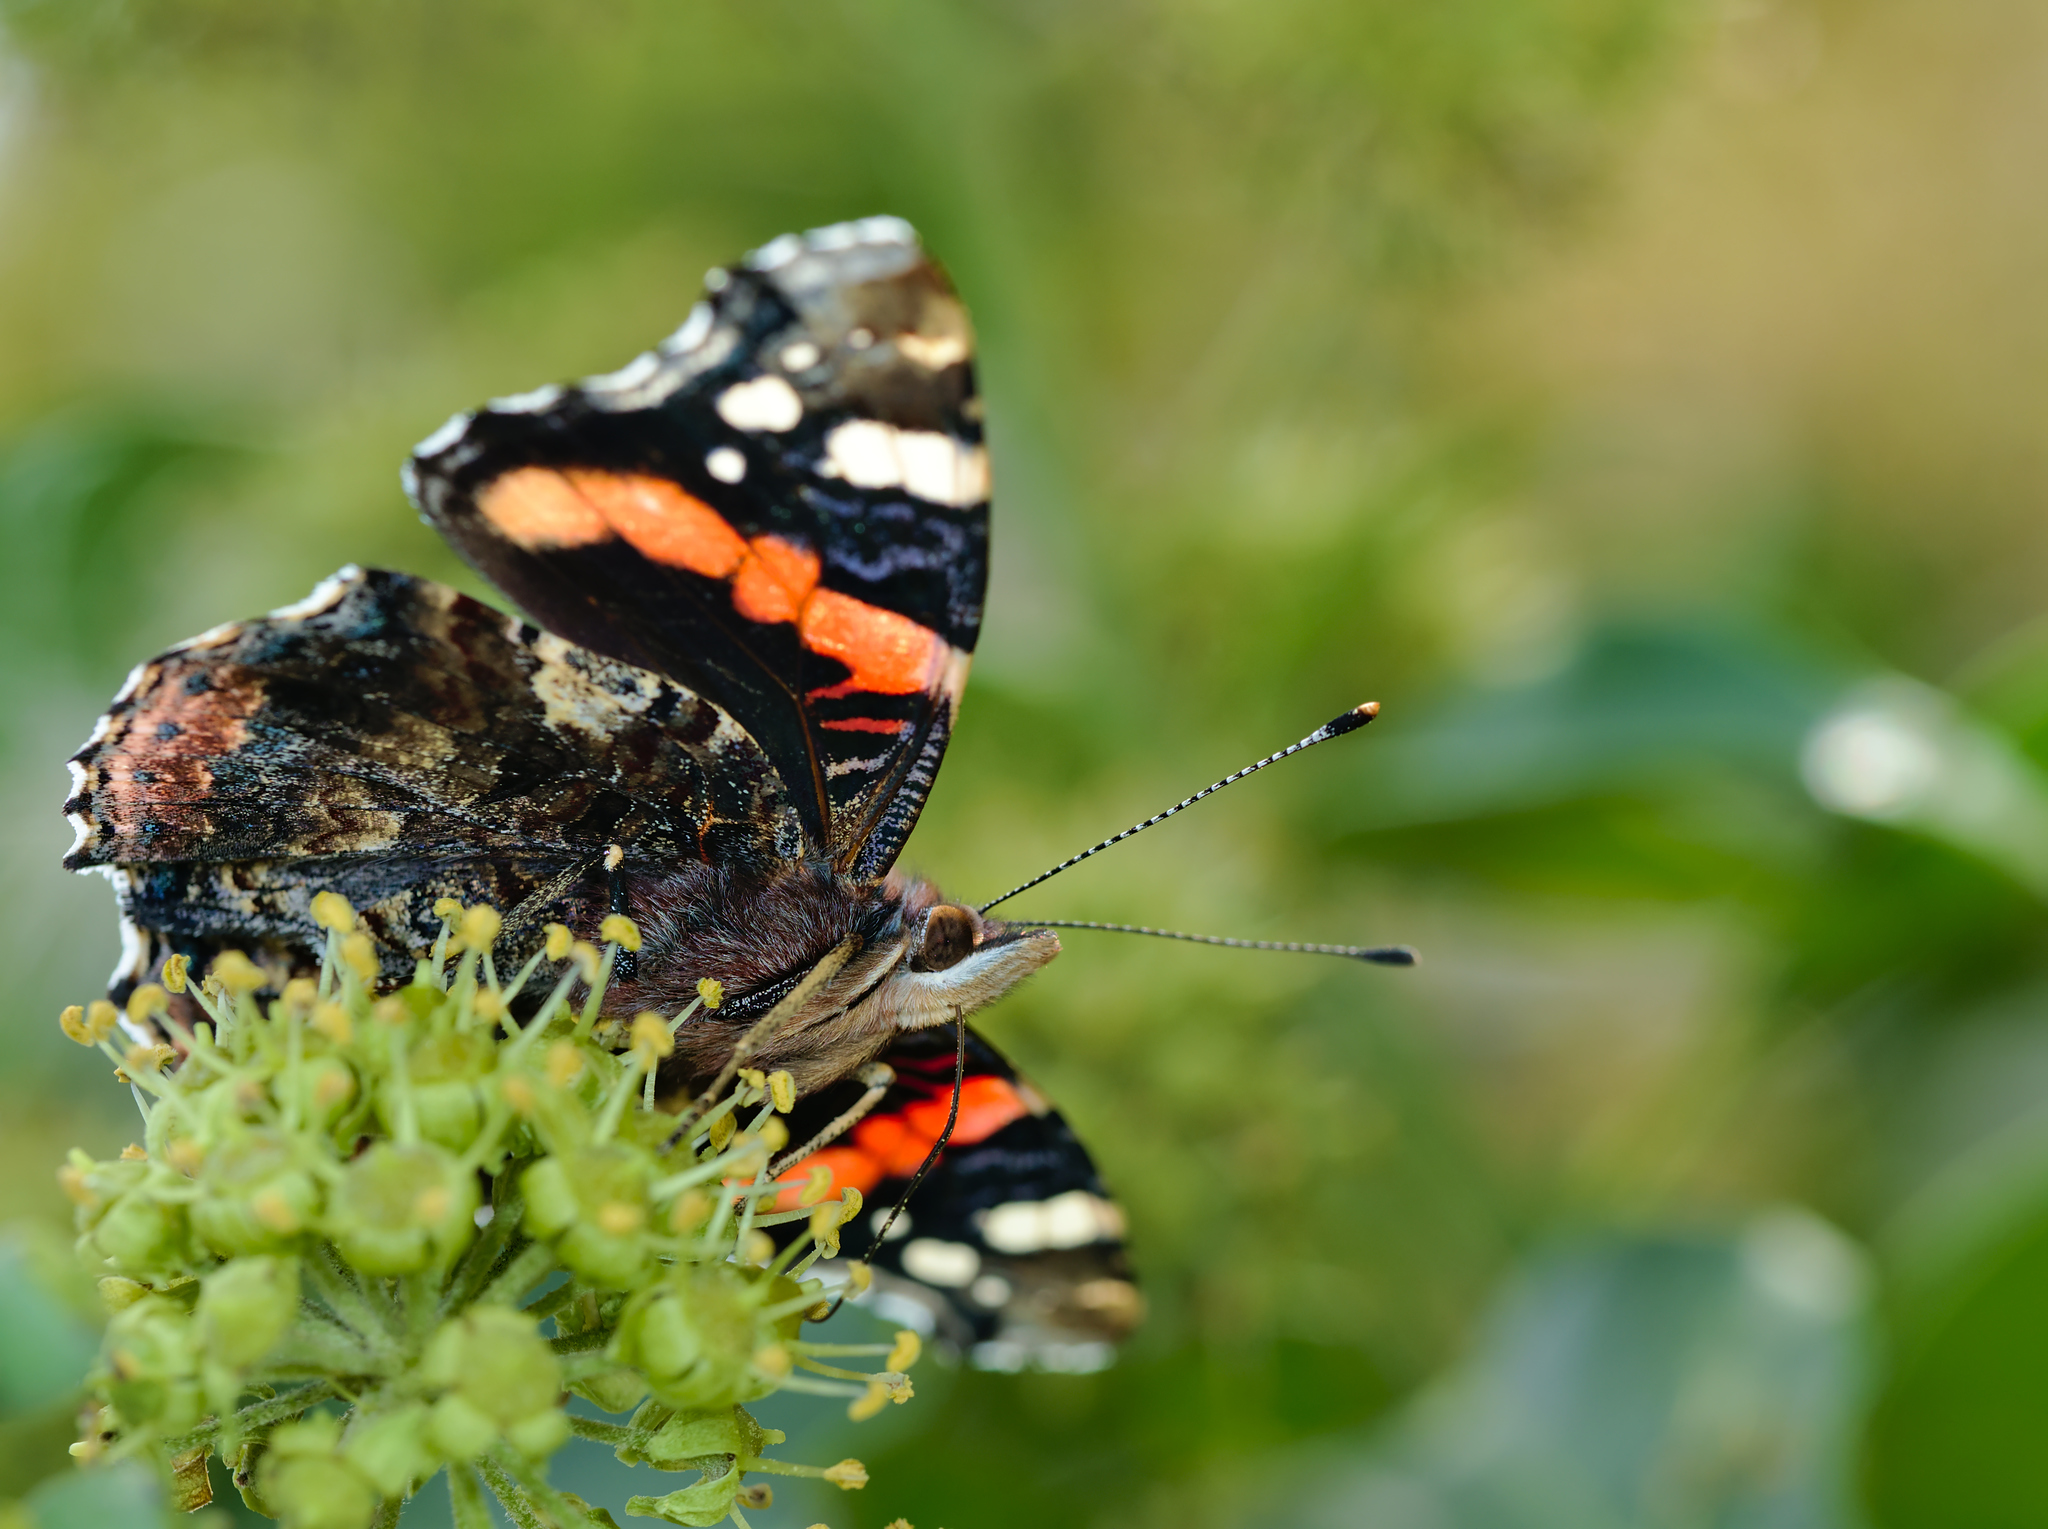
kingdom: Animalia
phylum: Arthropoda
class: Insecta
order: Lepidoptera
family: Nymphalidae
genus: Vanessa
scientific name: Vanessa atalanta
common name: Red admiral
